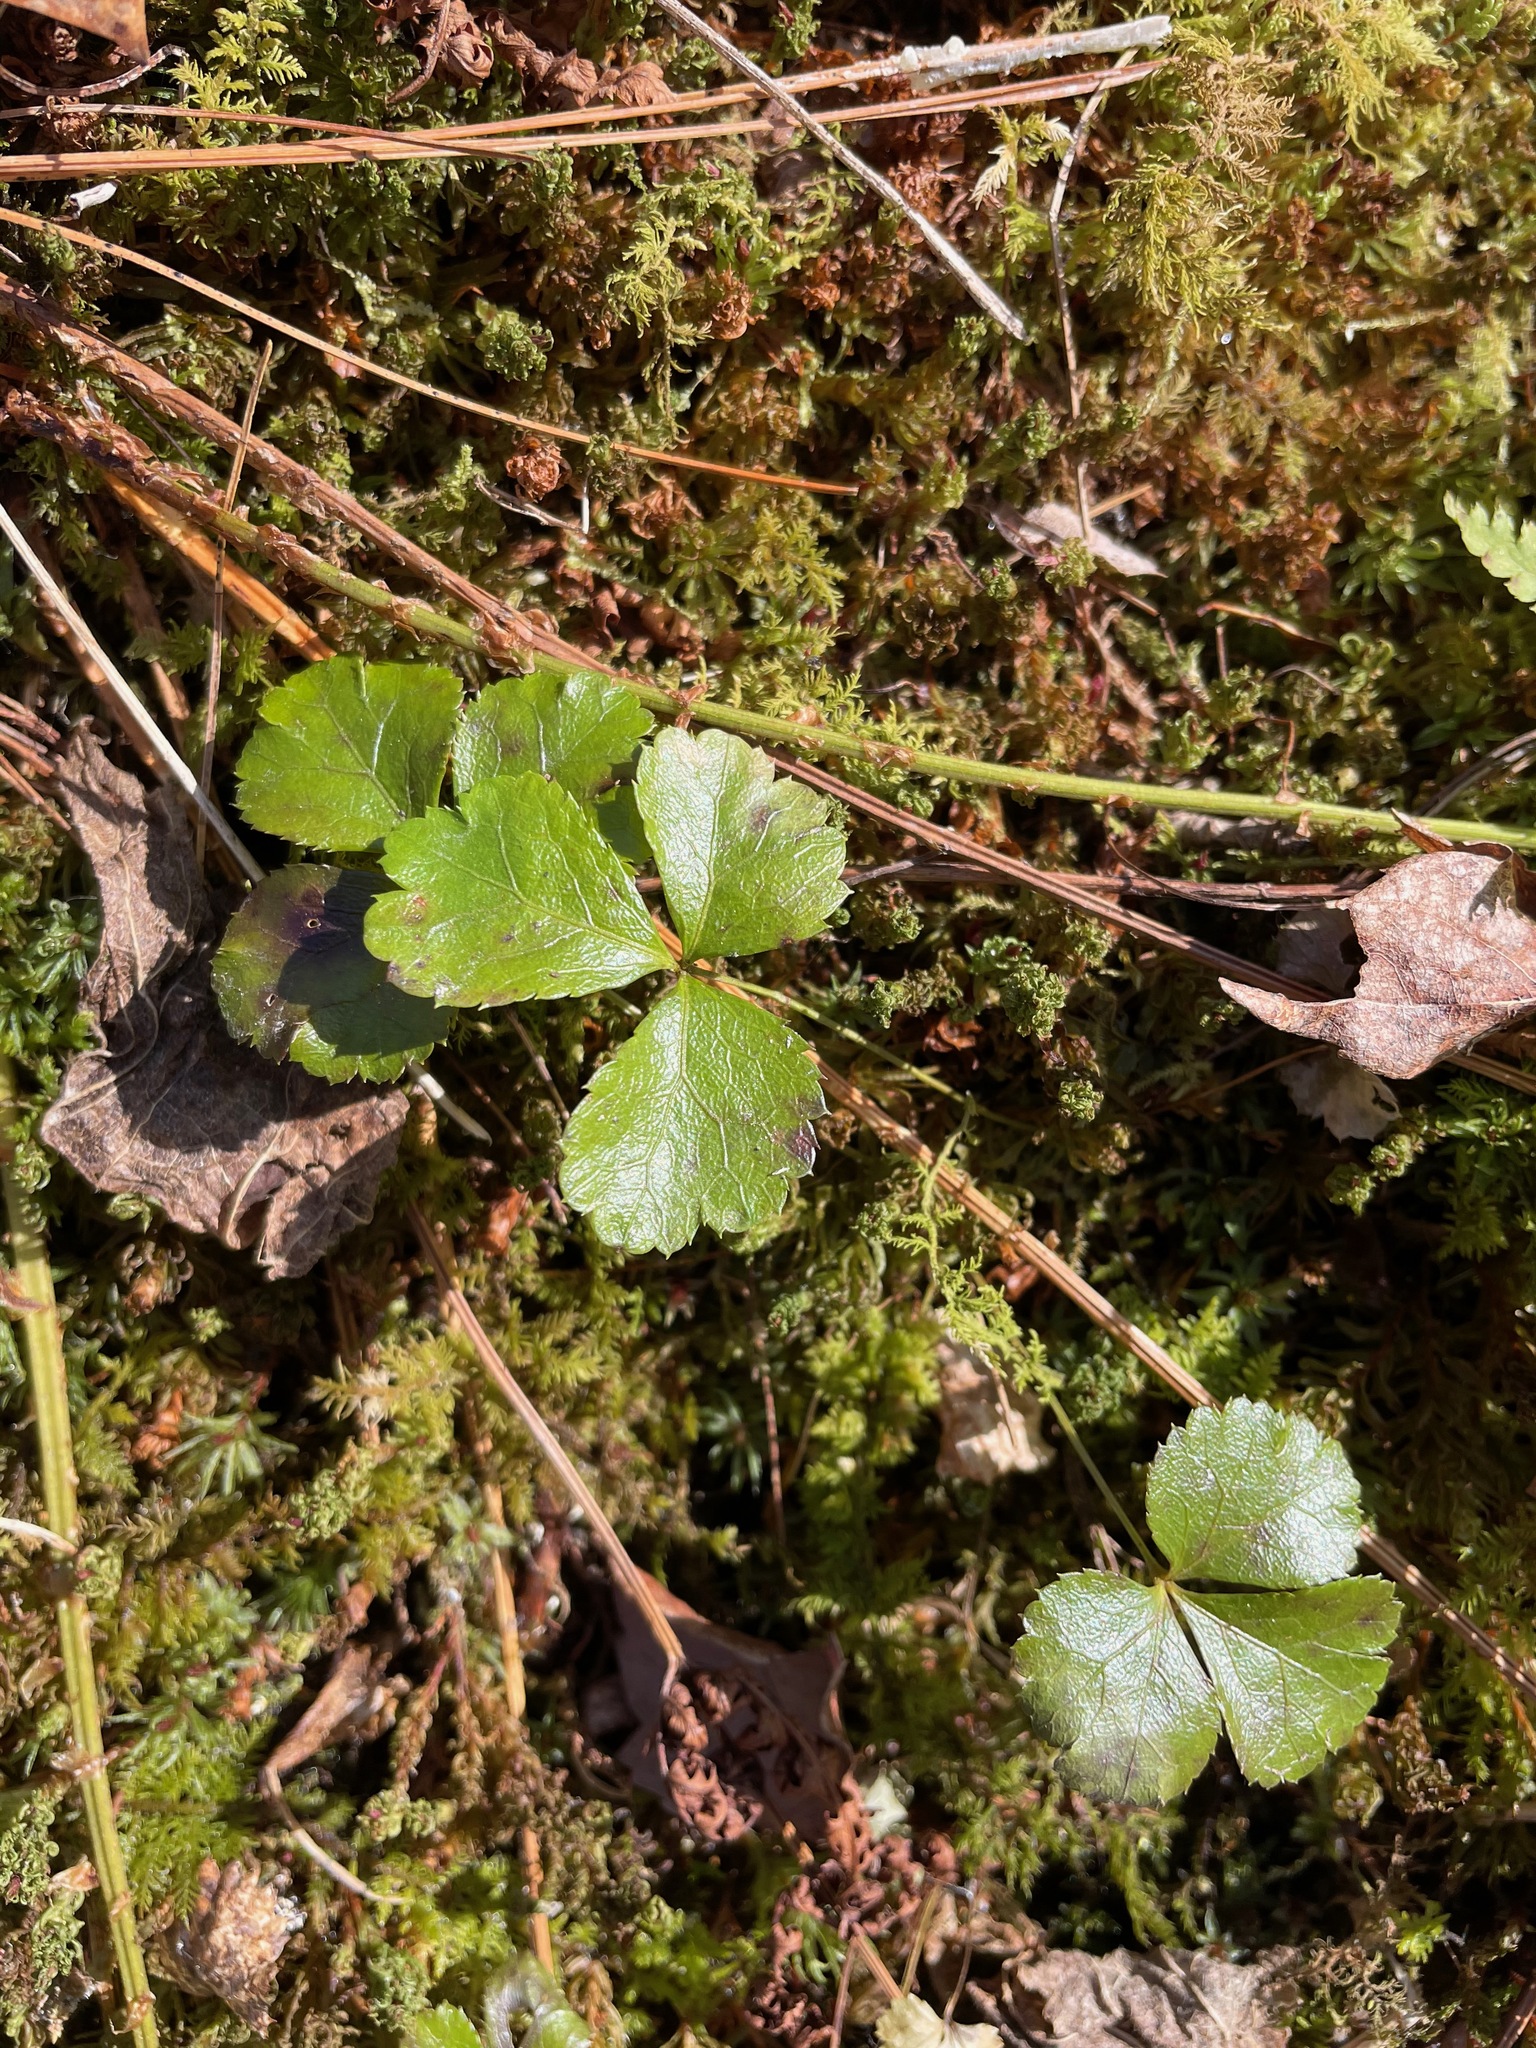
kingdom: Plantae
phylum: Tracheophyta
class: Magnoliopsida
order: Ranunculales
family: Ranunculaceae
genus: Coptis
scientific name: Coptis trifolia
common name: Canker-root
